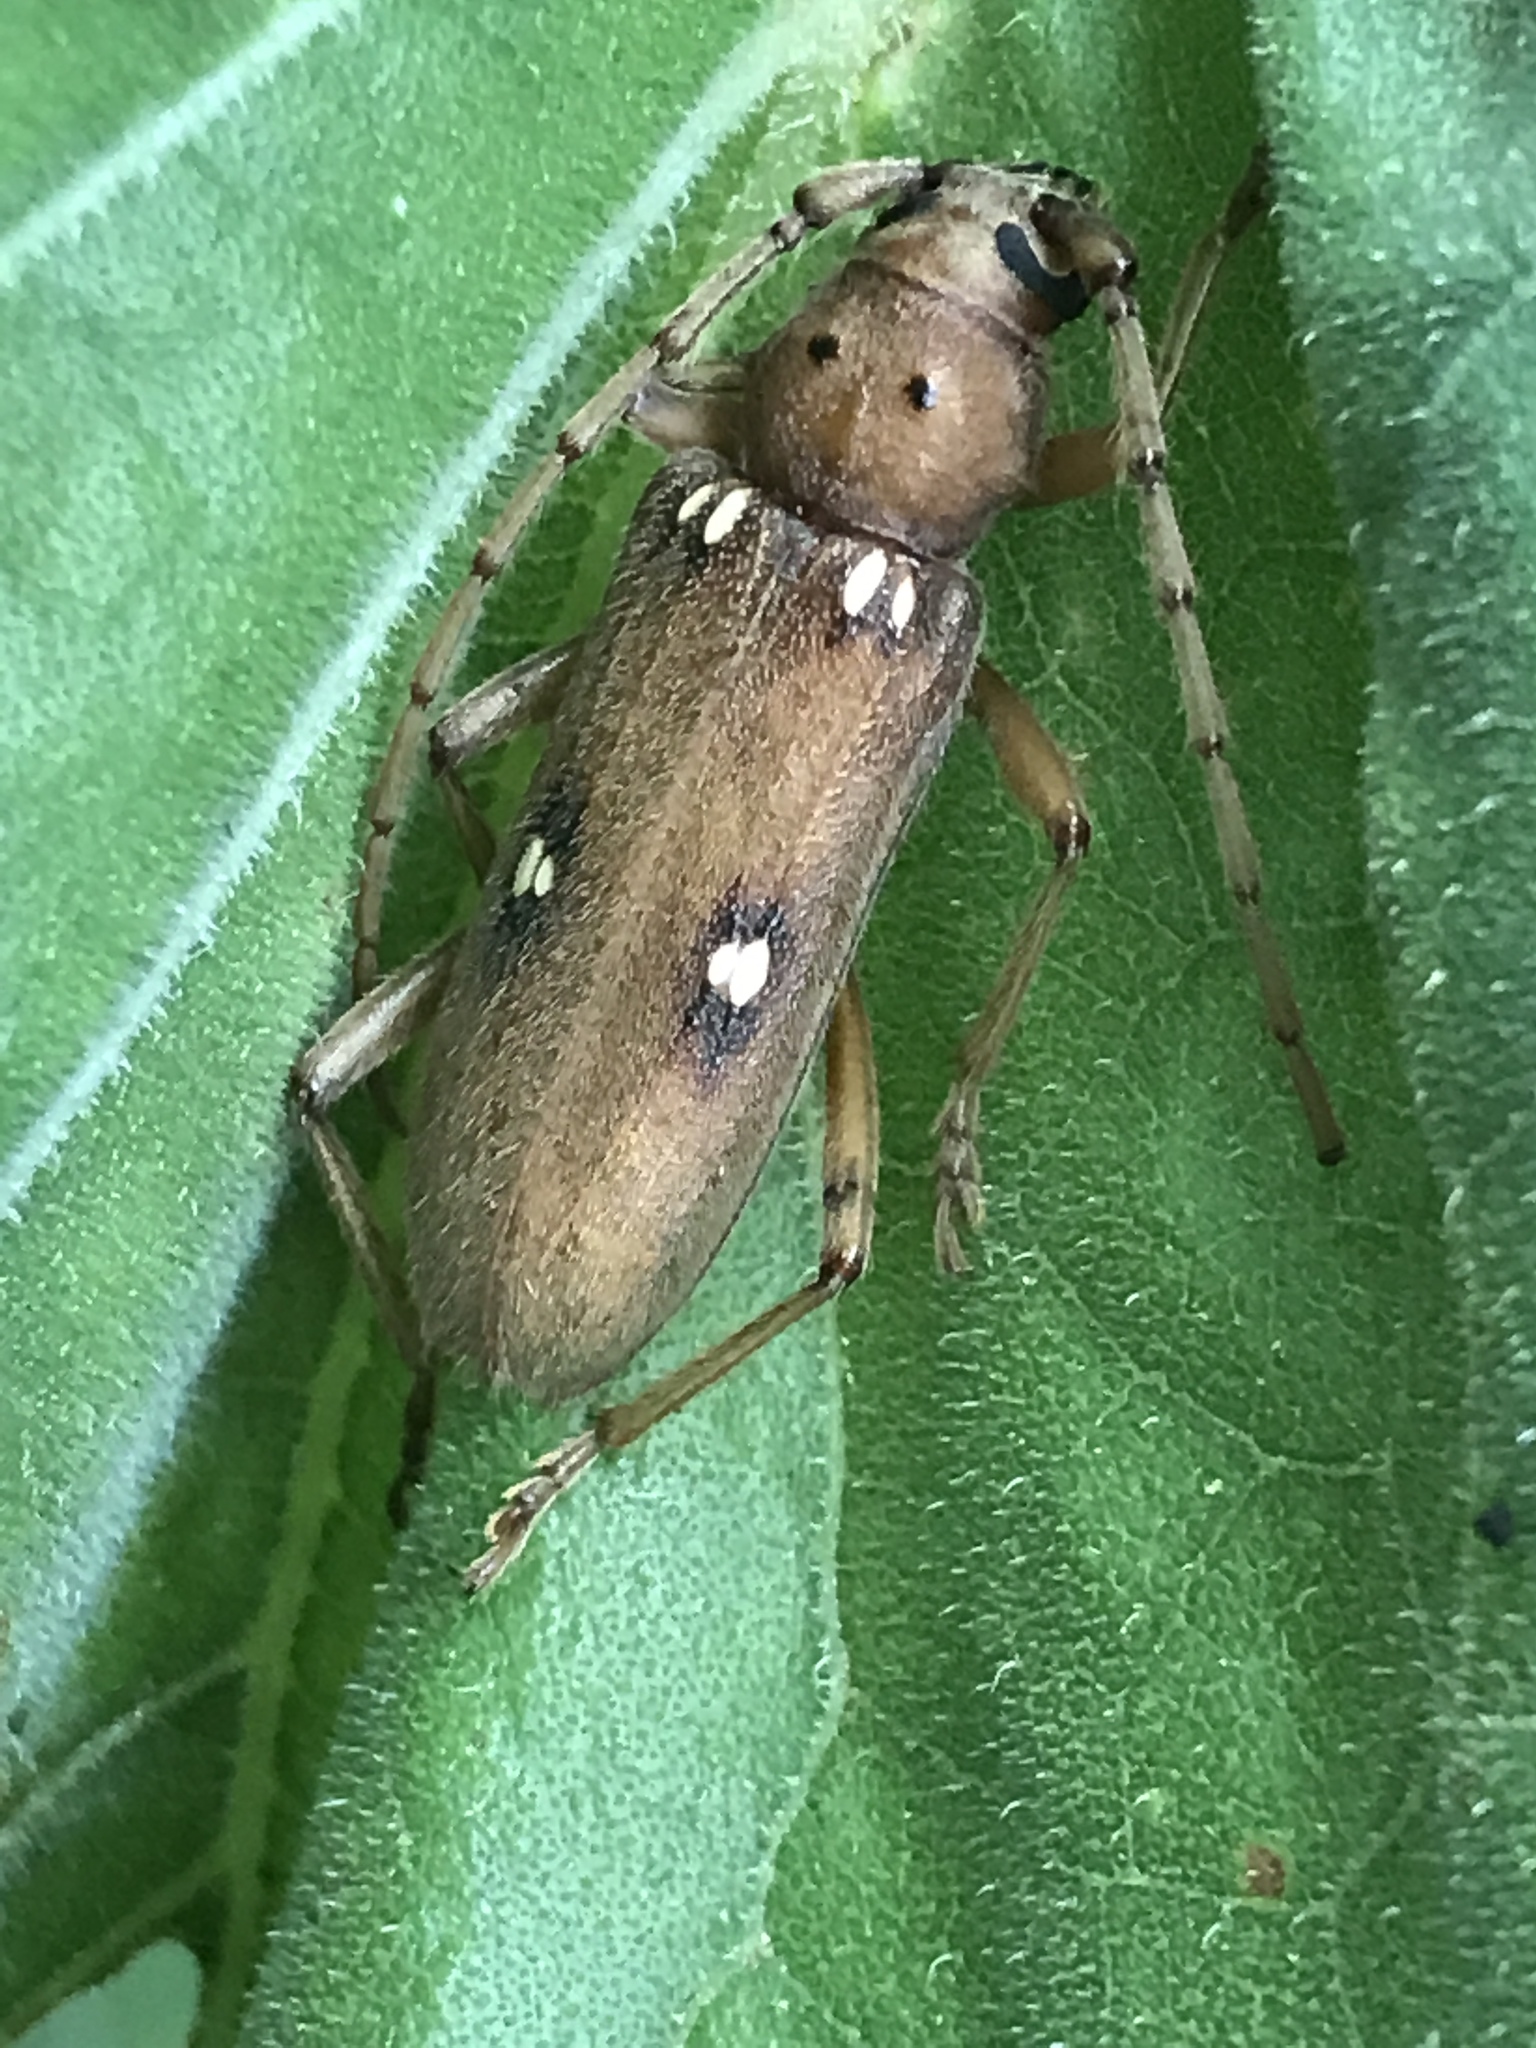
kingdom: Animalia
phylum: Arthropoda
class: Insecta
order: Coleoptera
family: Cerambycidae
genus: Eburia
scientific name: Eburia haldemani
